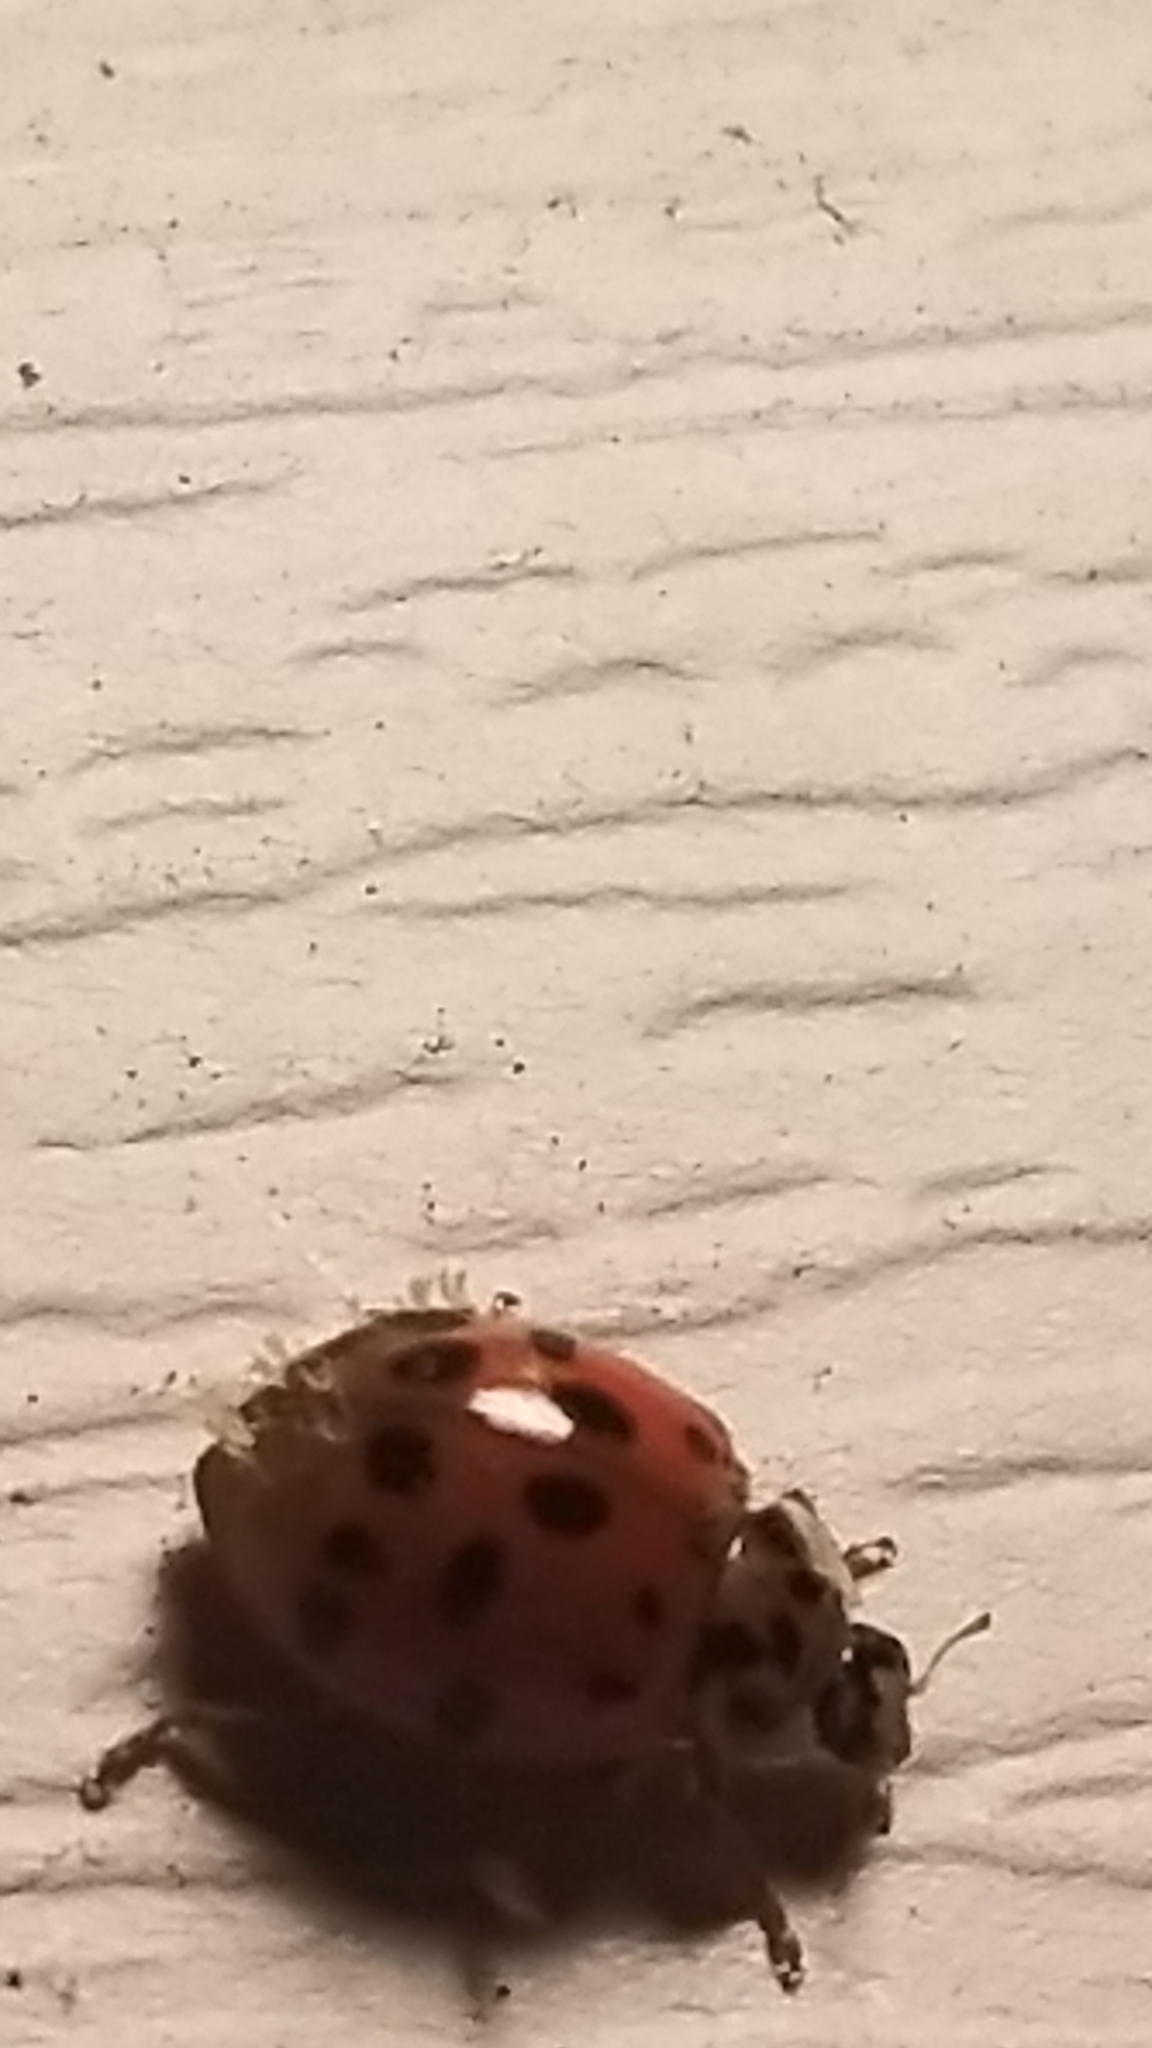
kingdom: Fungi
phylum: Ascomycota
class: Laboulbeniomycetes
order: Laboulbeniales
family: Laboulbeniaceae
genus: Hesperomyces
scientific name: Hesperomyces harmoniae
